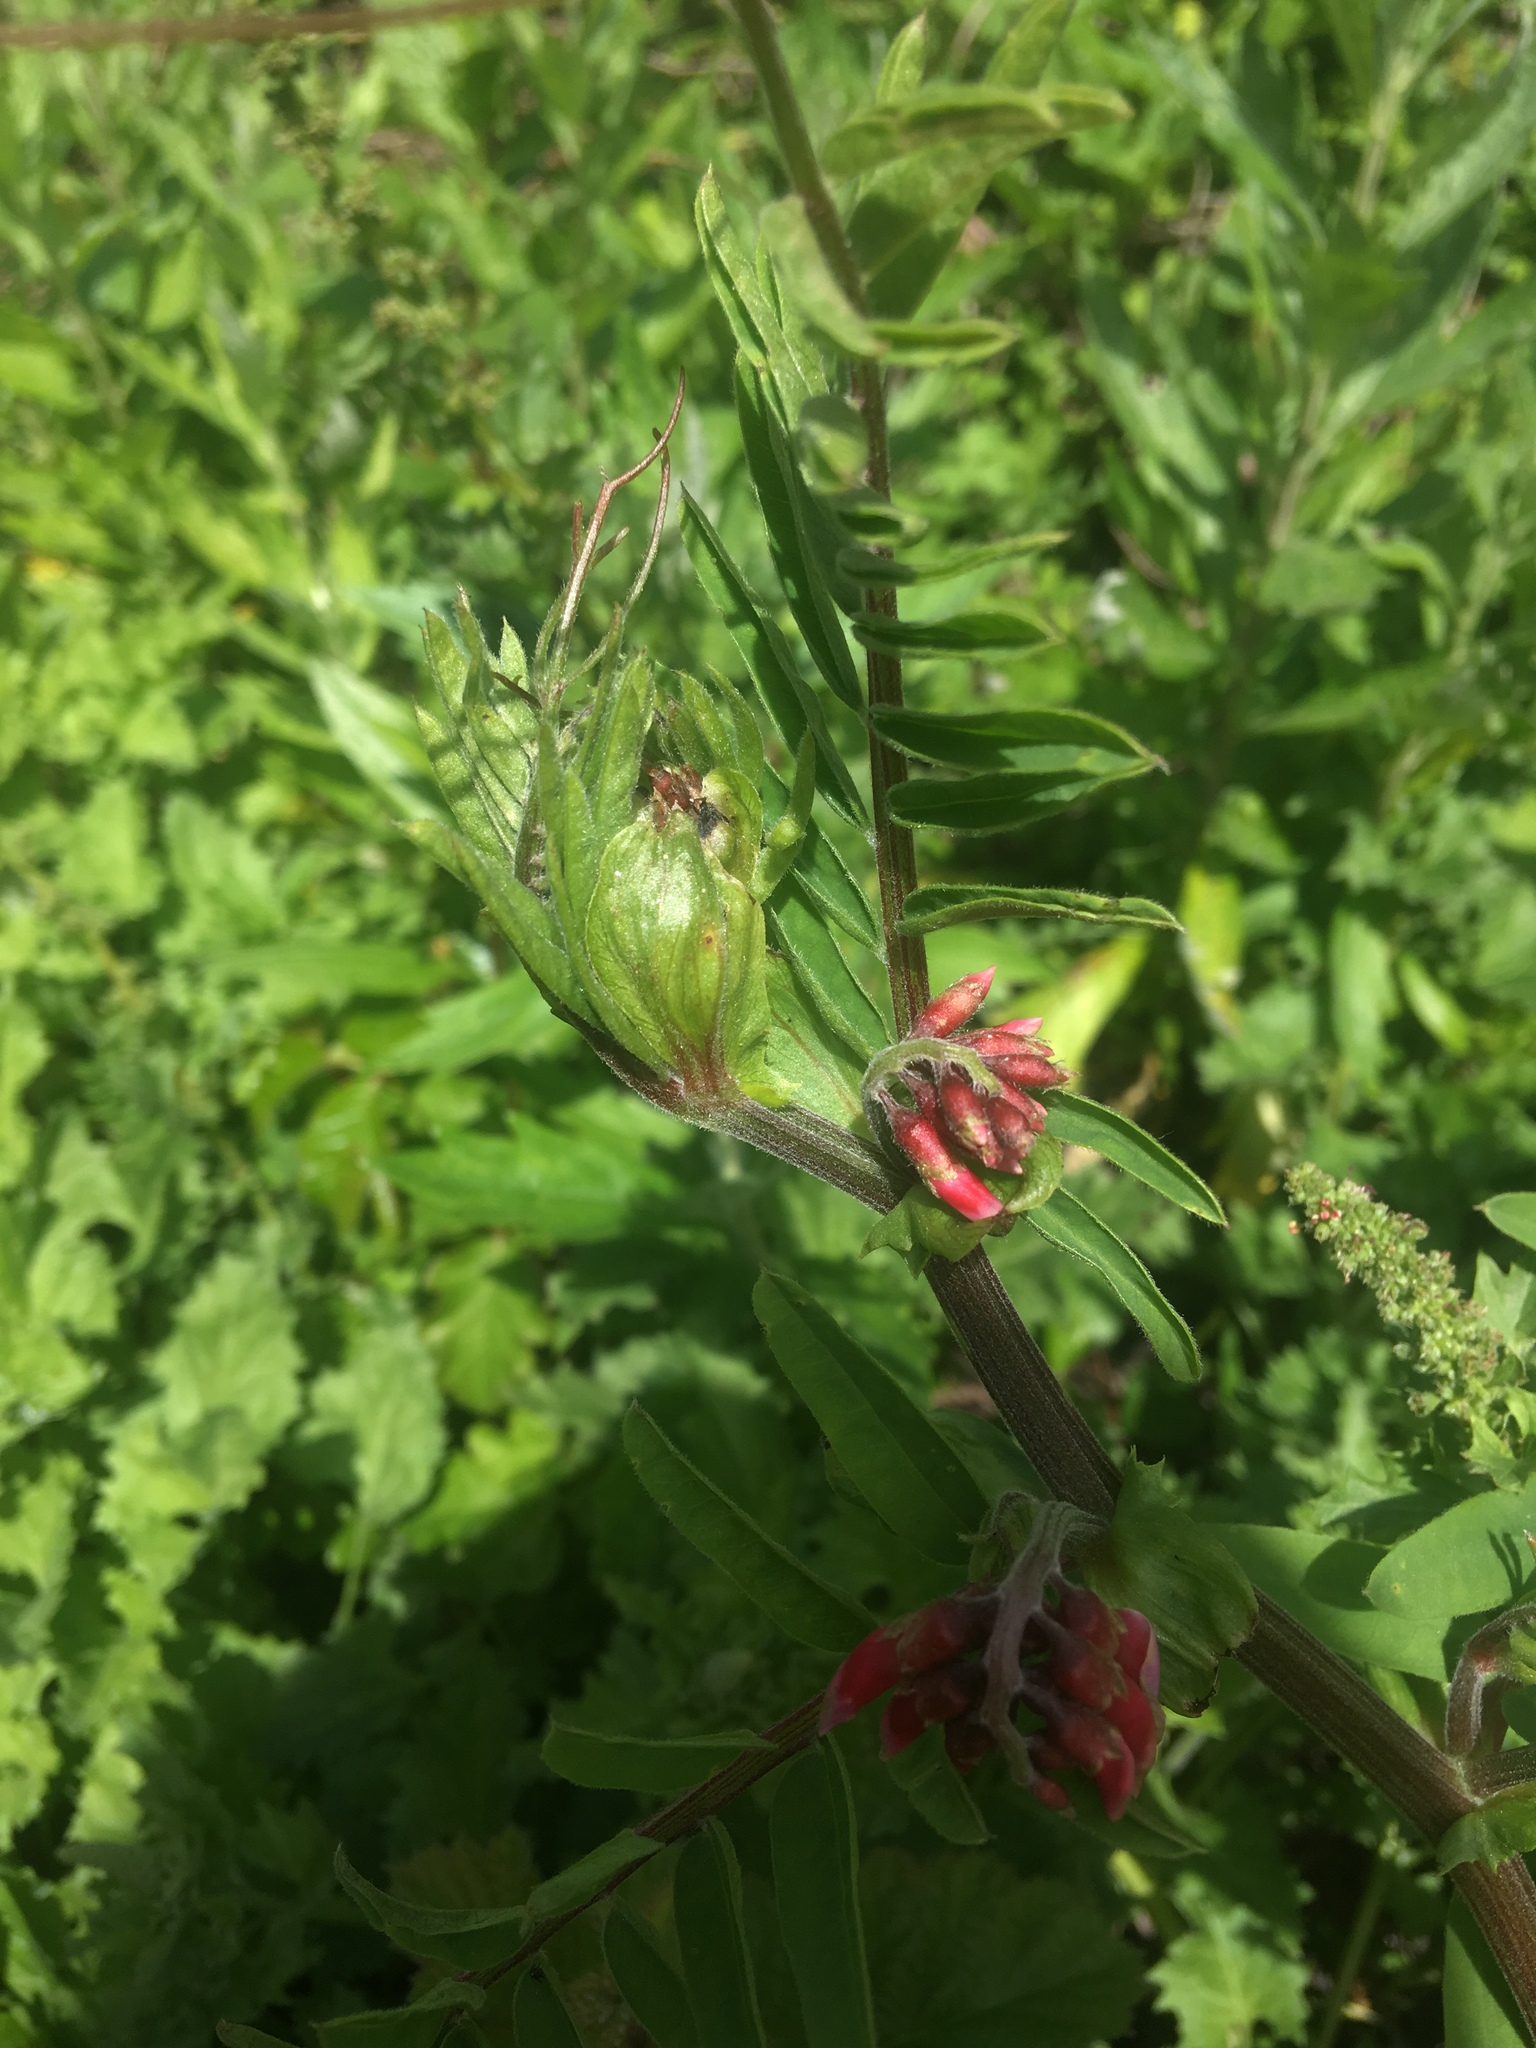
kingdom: Plantae
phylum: Tracheophyta
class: Magnoliopsida
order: Fabales
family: Fabaceae
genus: Vicia
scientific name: Vicia
